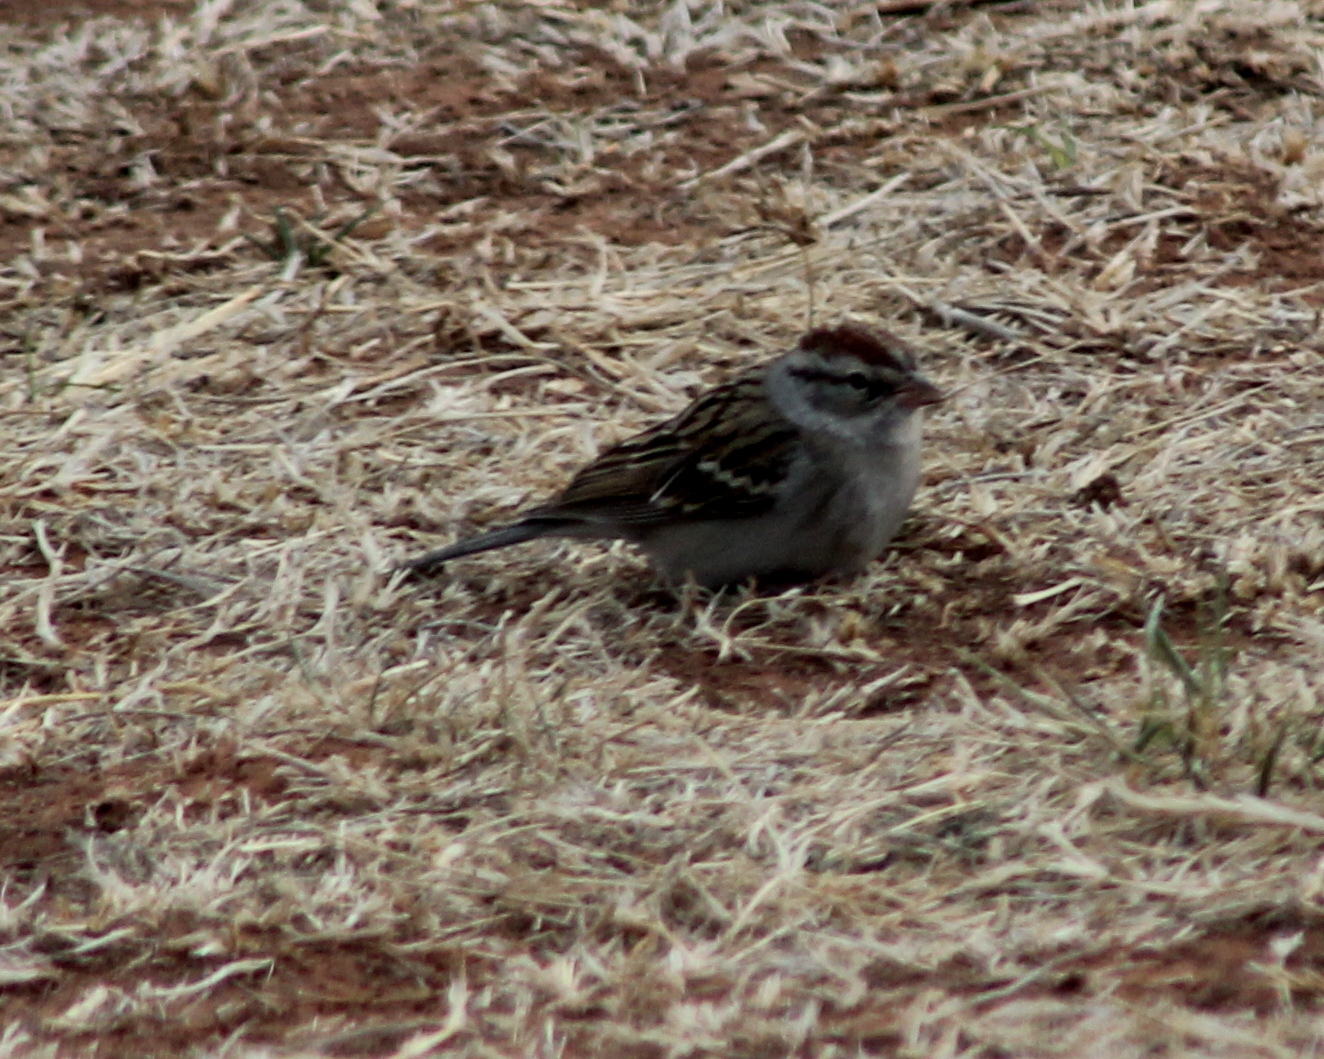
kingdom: Animalia
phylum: Chordata
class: Aves
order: Passeriformes
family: Passerellidae
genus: Spizella
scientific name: Spizella passerina
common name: Chipping sparrow
